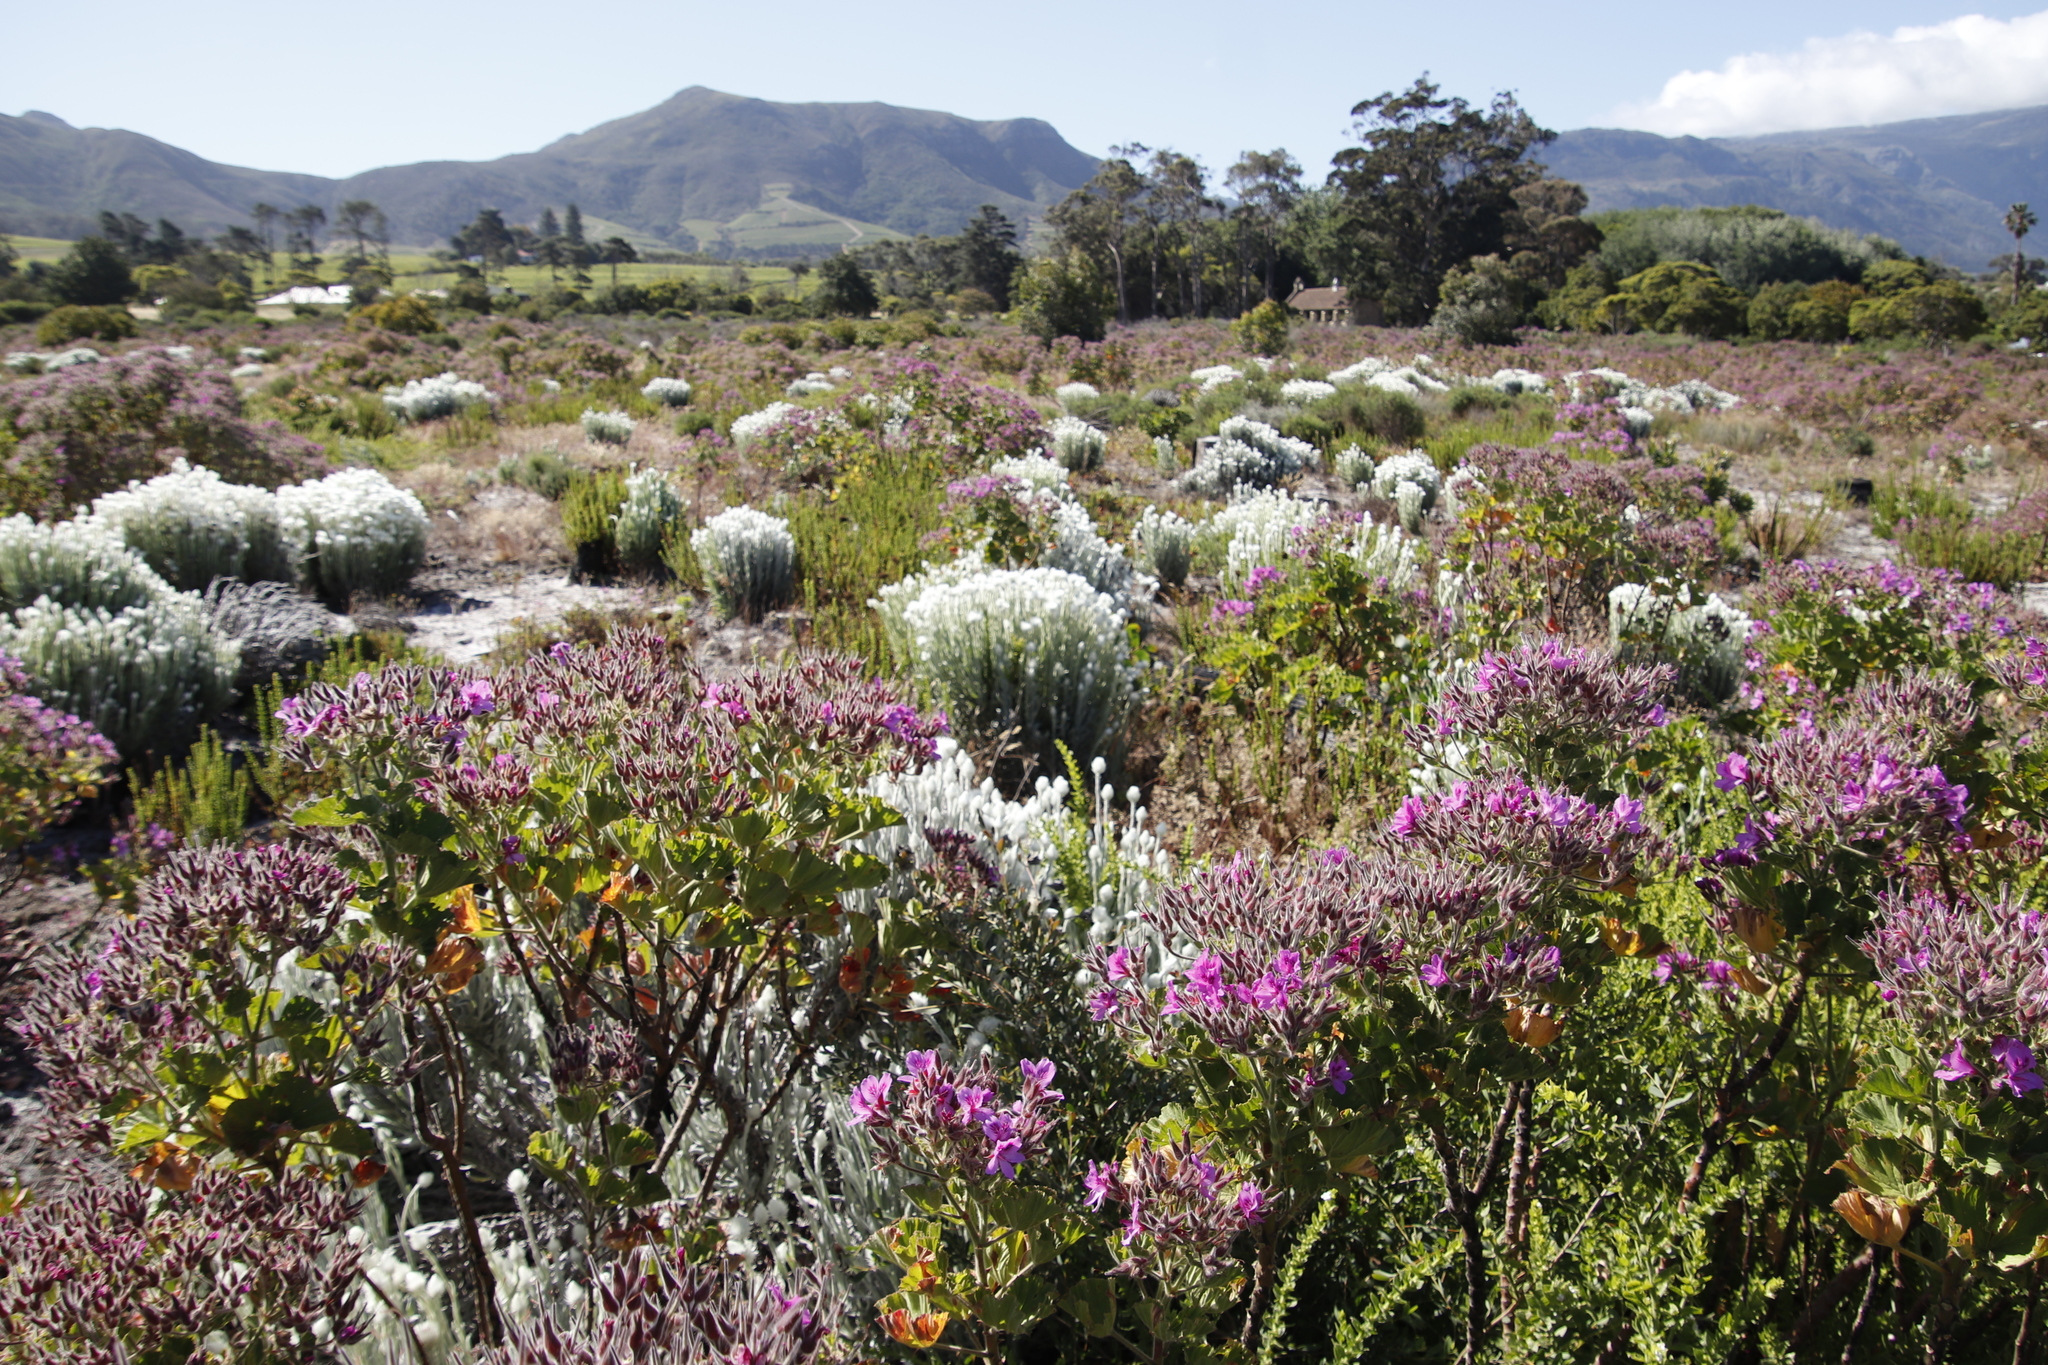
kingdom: Plantae
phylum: Tracheophyta
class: Magnoliopsida
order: Asterales
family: Asteraceae
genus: Syncarpha
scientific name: Syncarpha vestita
